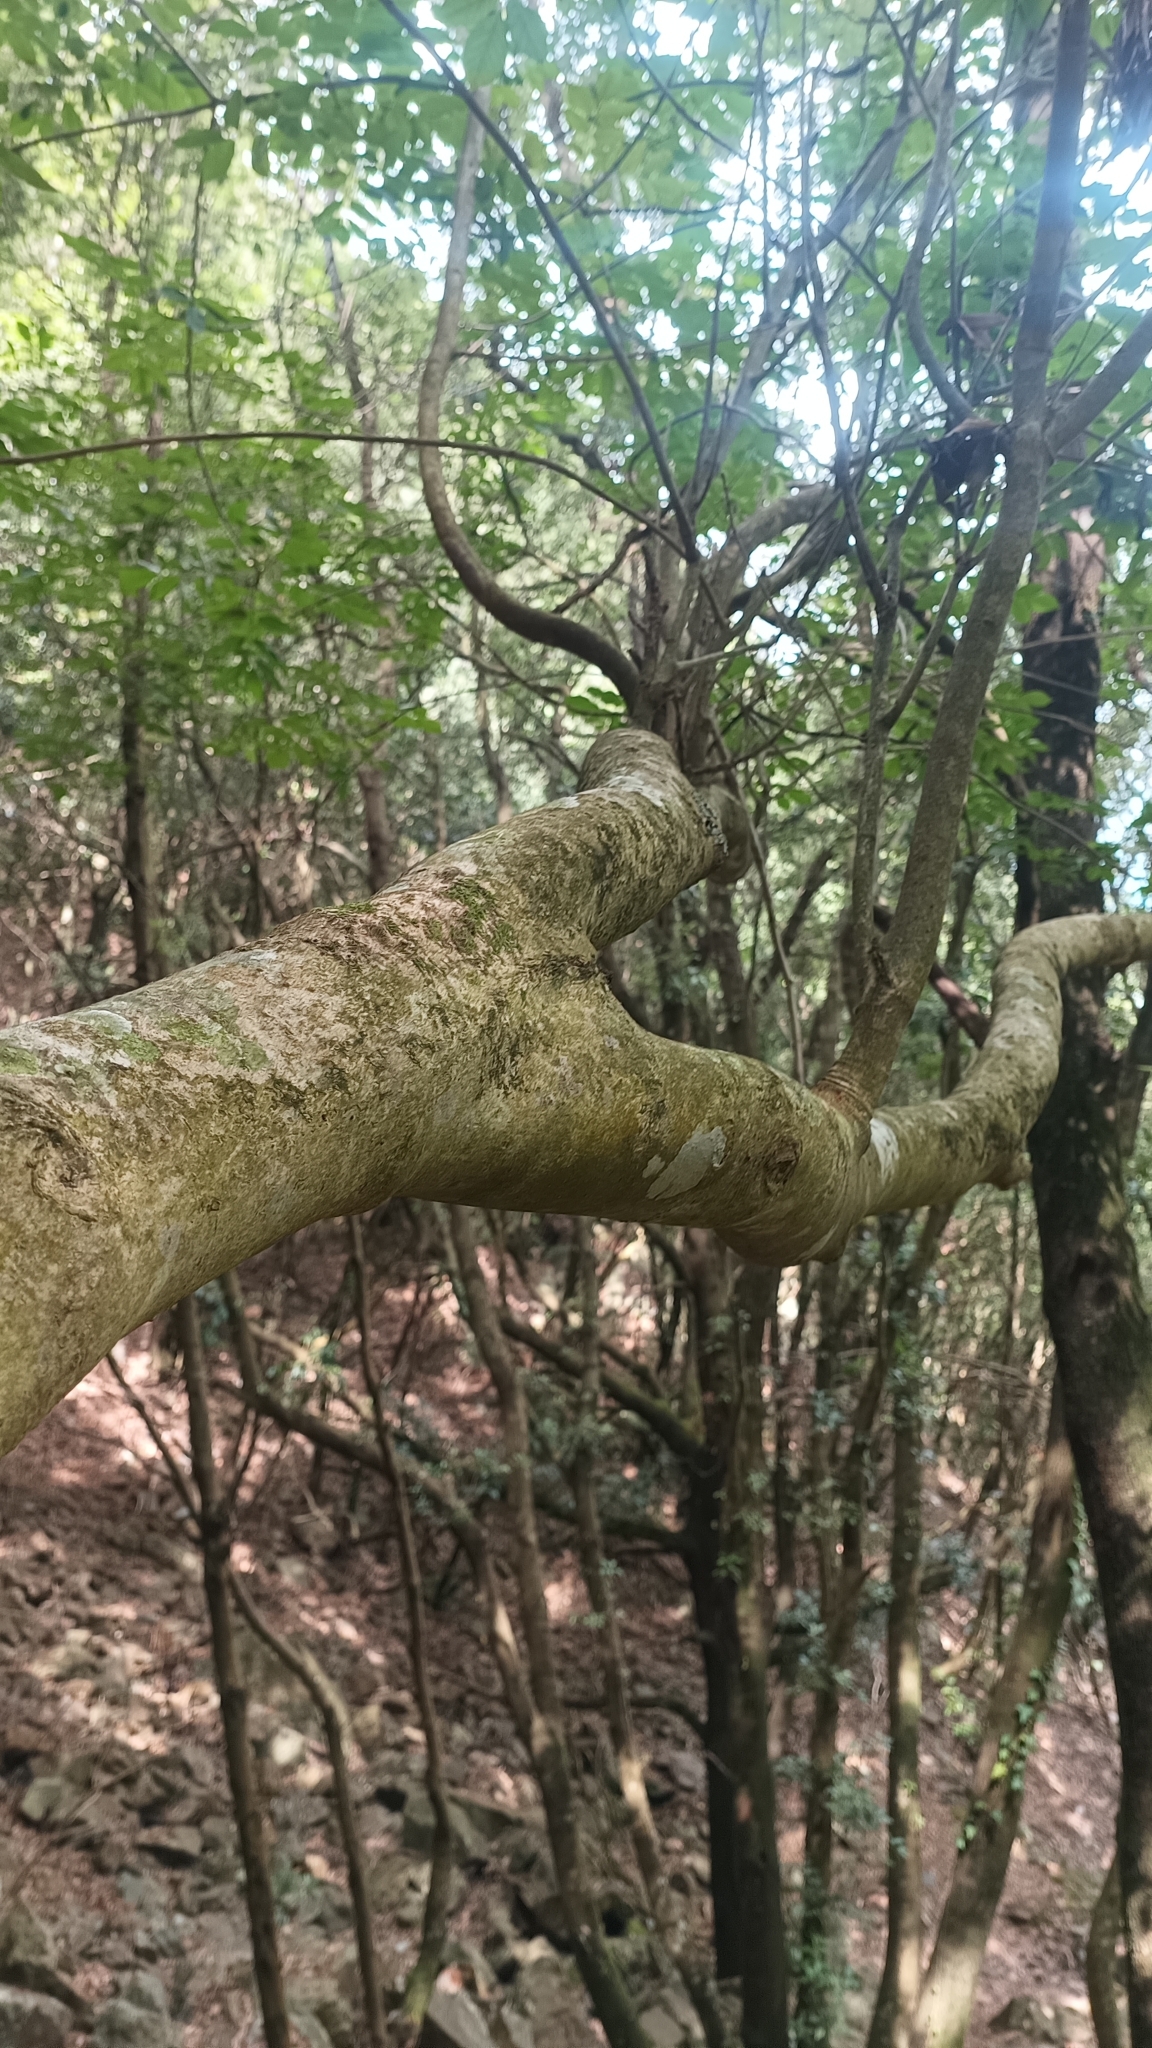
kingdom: Plantae
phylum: Tracheophyta
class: Magnoliopsida
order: Lamiales
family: Oleaceae
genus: Fraxinus
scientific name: Fraxinus ornus
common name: Manna ash
